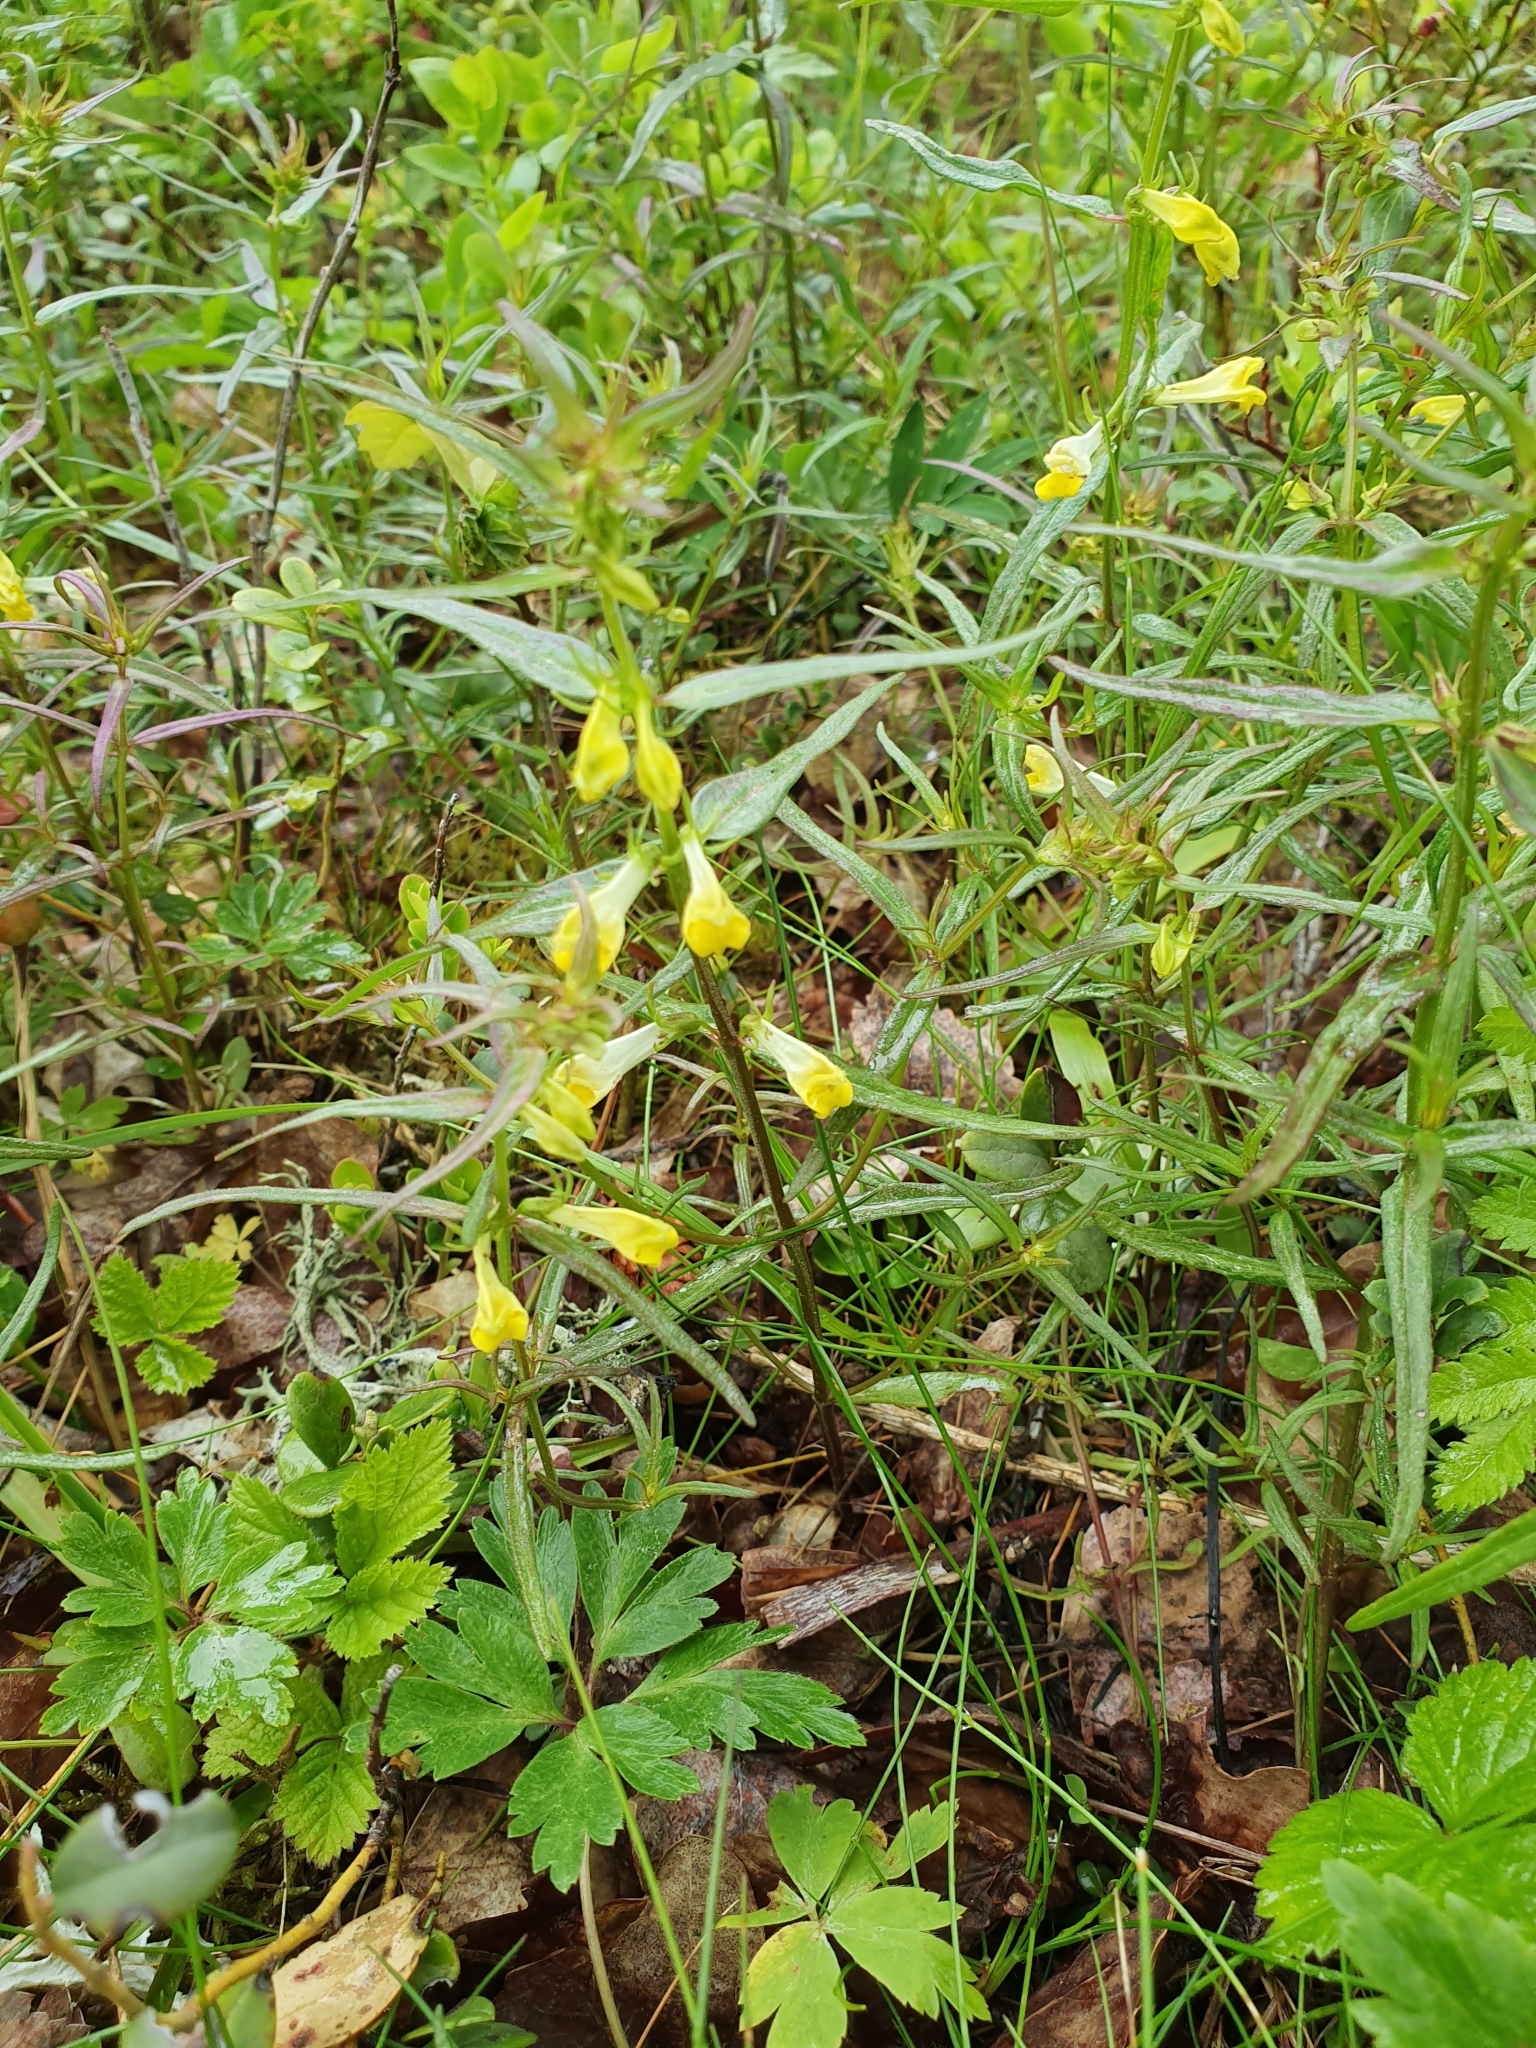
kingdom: Plantae
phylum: Tracheophyta
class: Magnoliopsida
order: Lamiales
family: Orobanchaceae
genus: Melampyrum
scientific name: Melampyrum pratense
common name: Common cow-wheat
